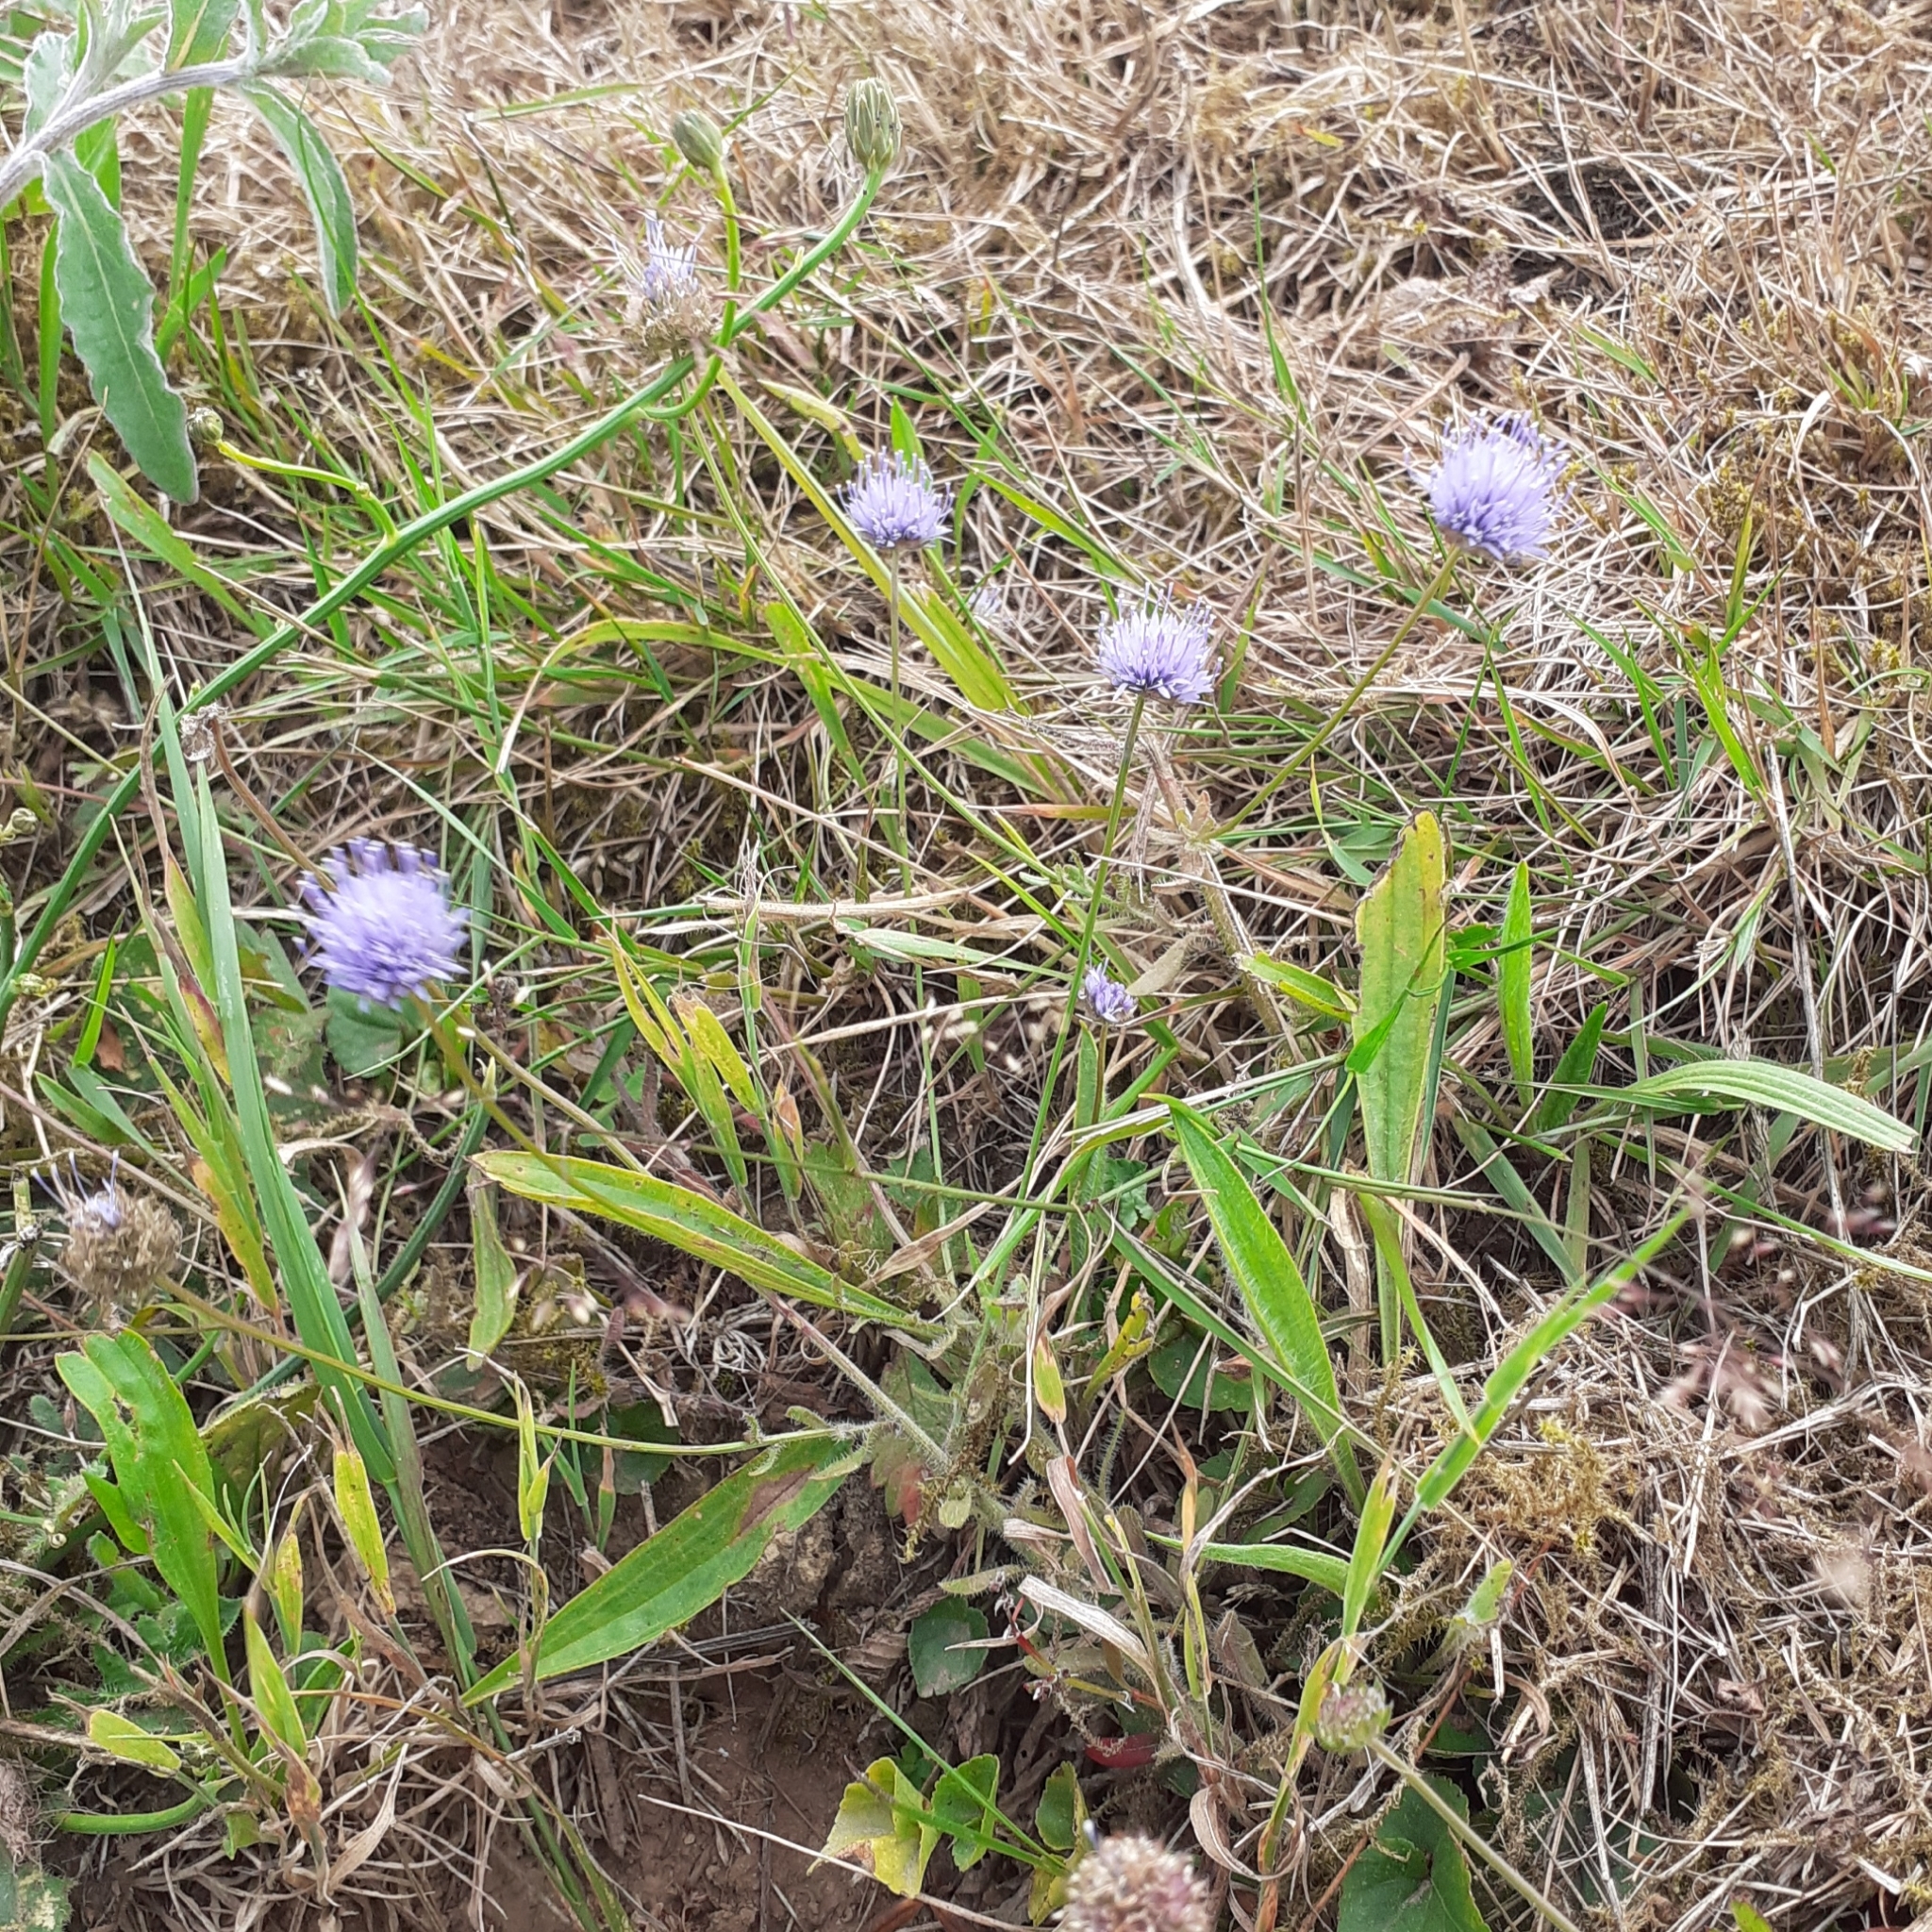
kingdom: Plantae
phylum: Tracheophyta
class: Magnoliopsida
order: Asterales
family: Campanulaceae
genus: Jasione
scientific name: Jasione montana
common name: Sheep's-bit
